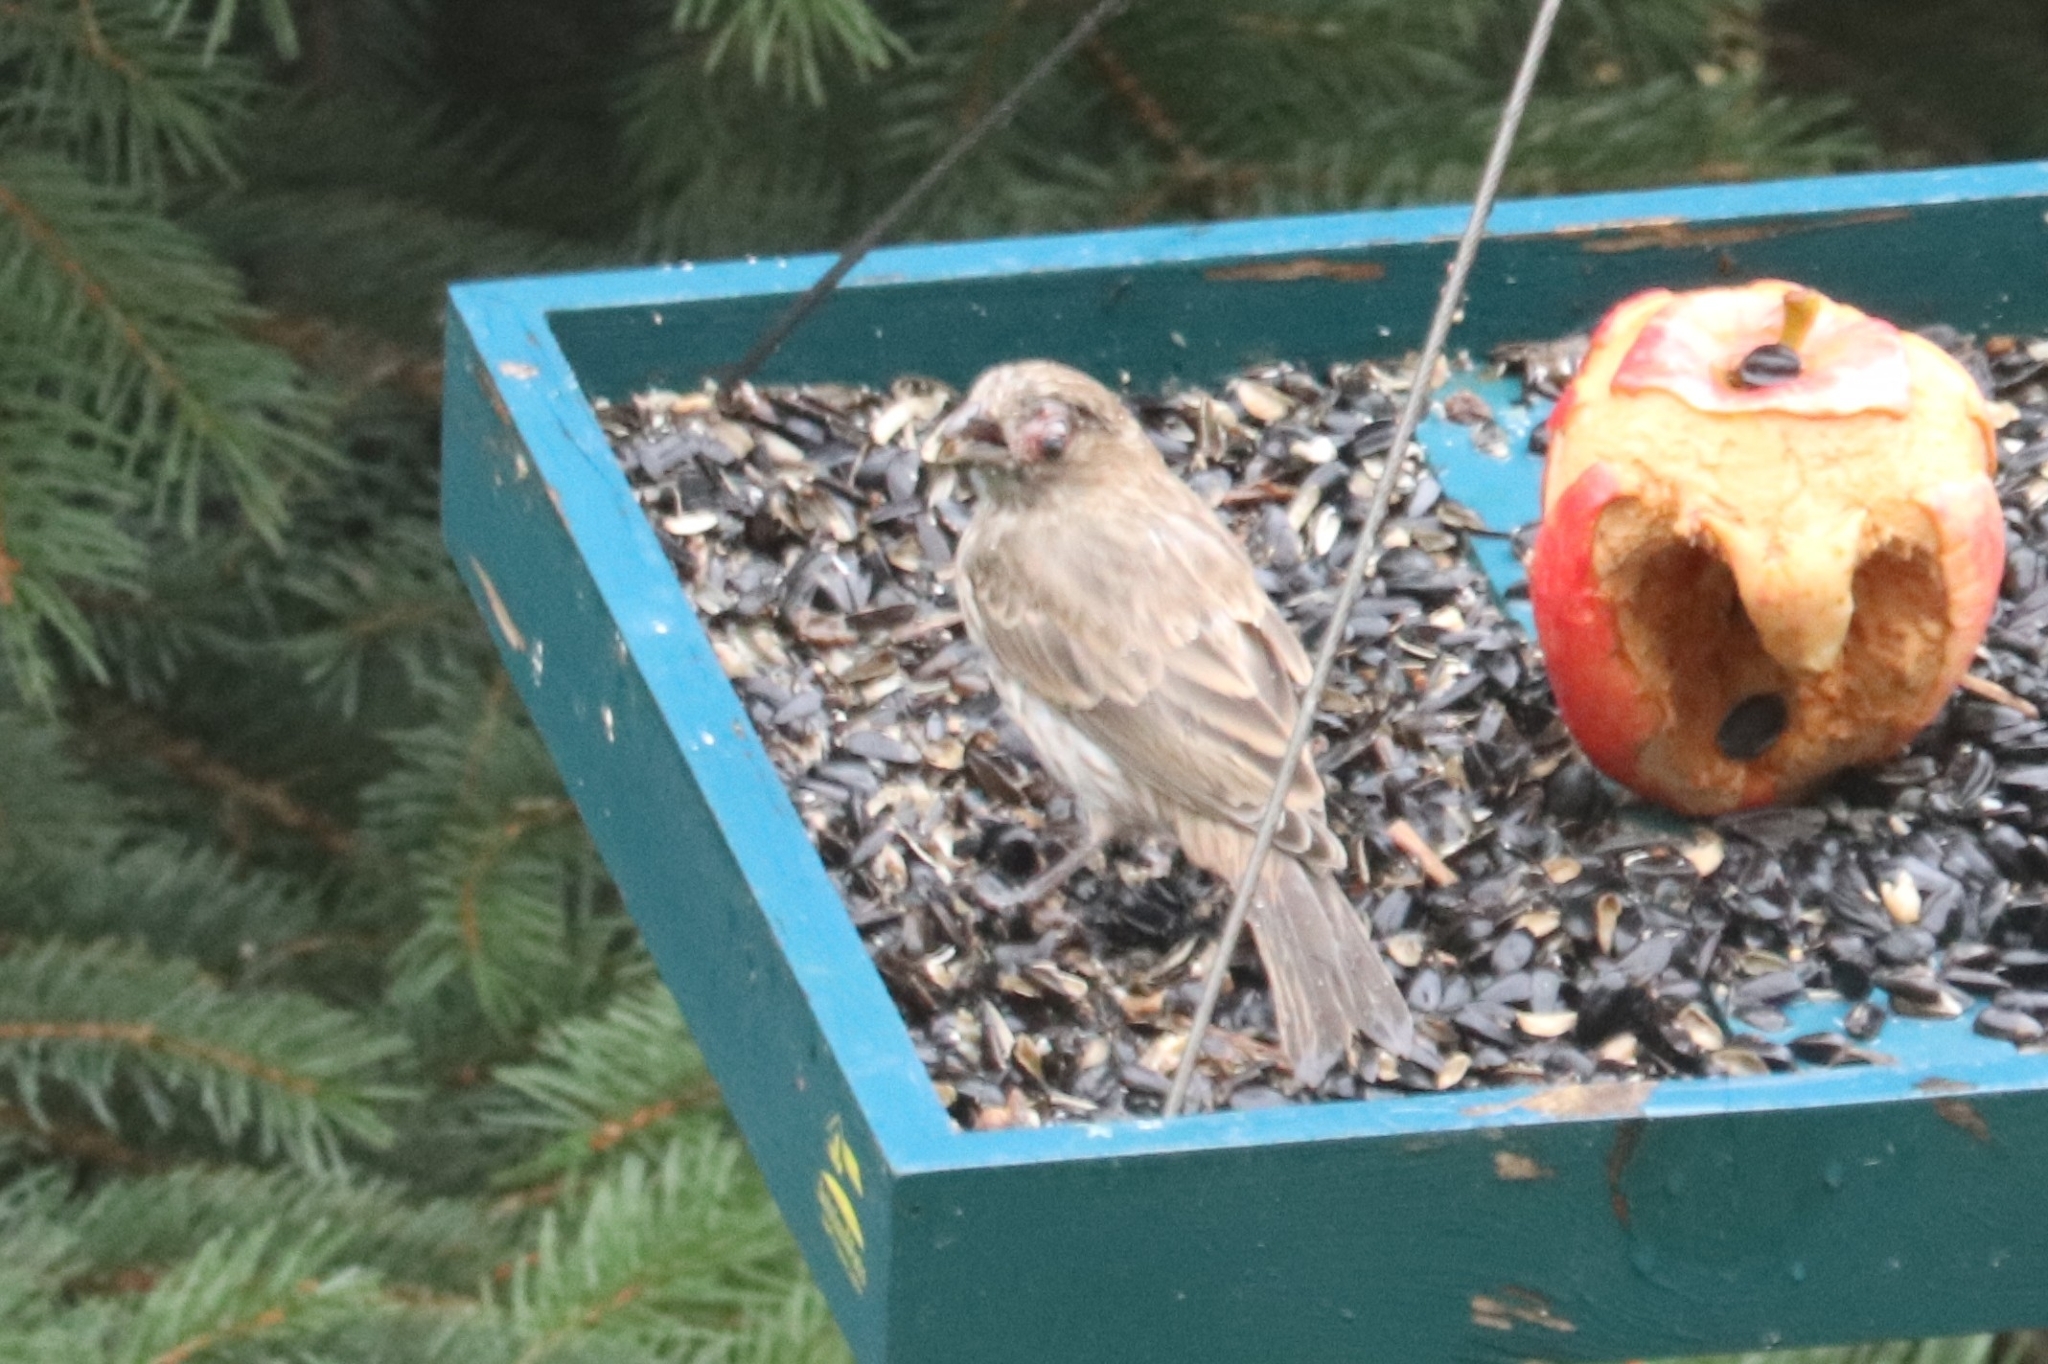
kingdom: Animalia
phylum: Chordata
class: Aves
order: Passeriformes
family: Fringillidae
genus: Haemorhous
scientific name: Haemorhous mexicanus
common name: House finch
